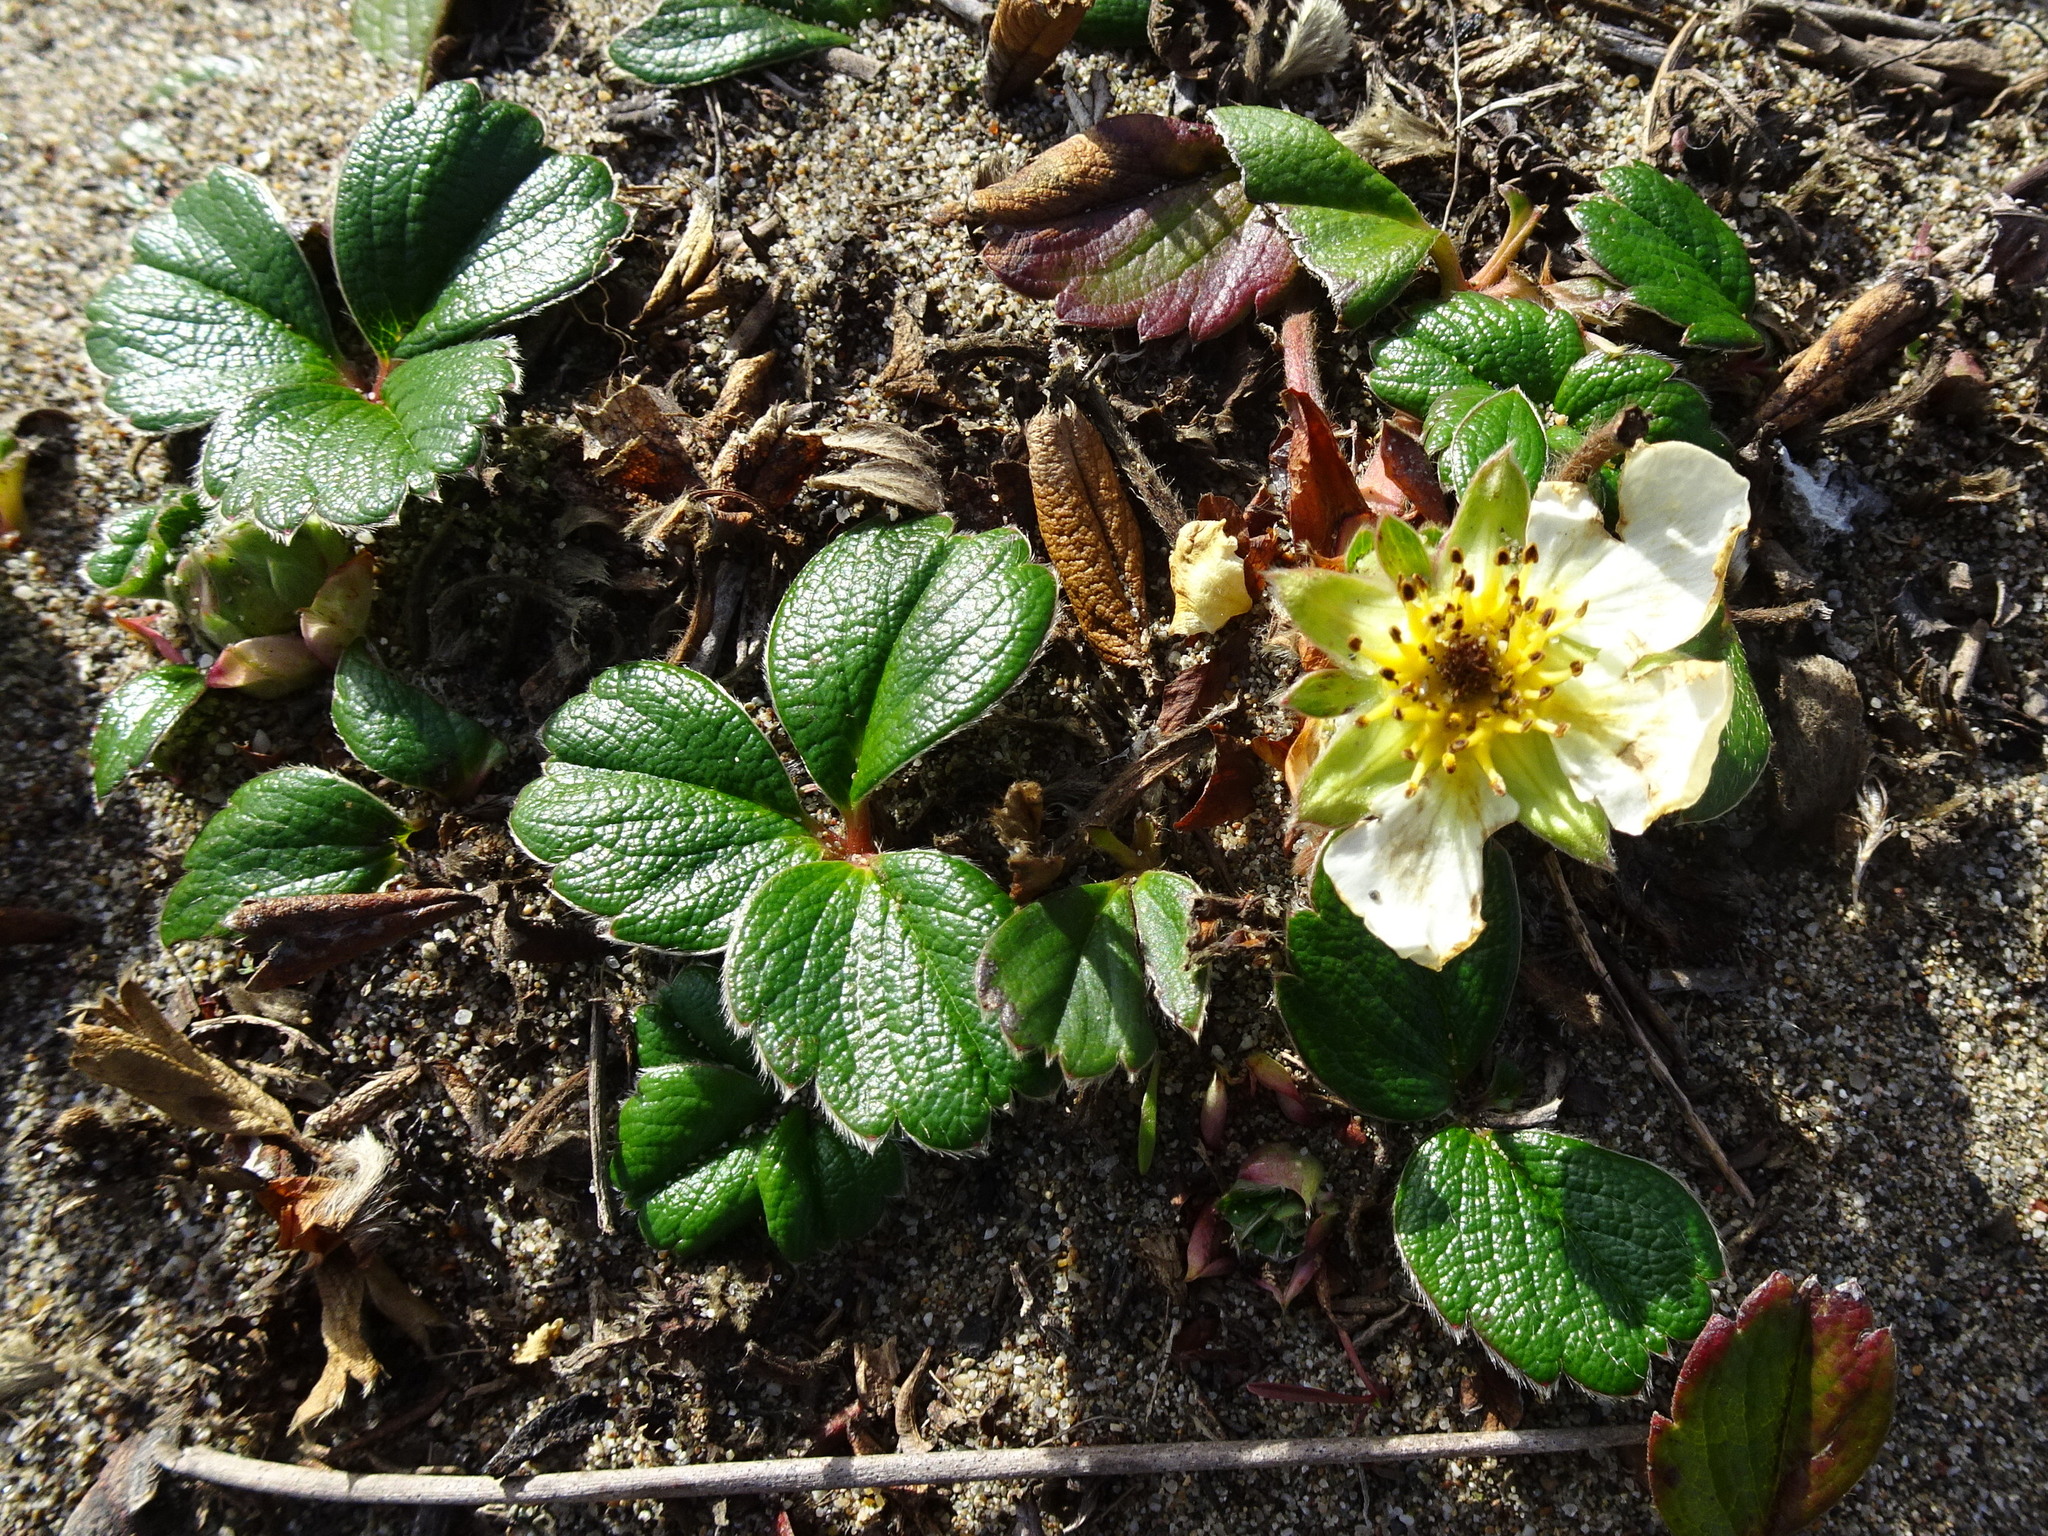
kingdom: Plantae
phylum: Tracheophyta
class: Magnoliopsida
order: Rosales
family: Rosaceae
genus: Fragaria
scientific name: Fragaria chiloensis
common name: Beach strawberry
